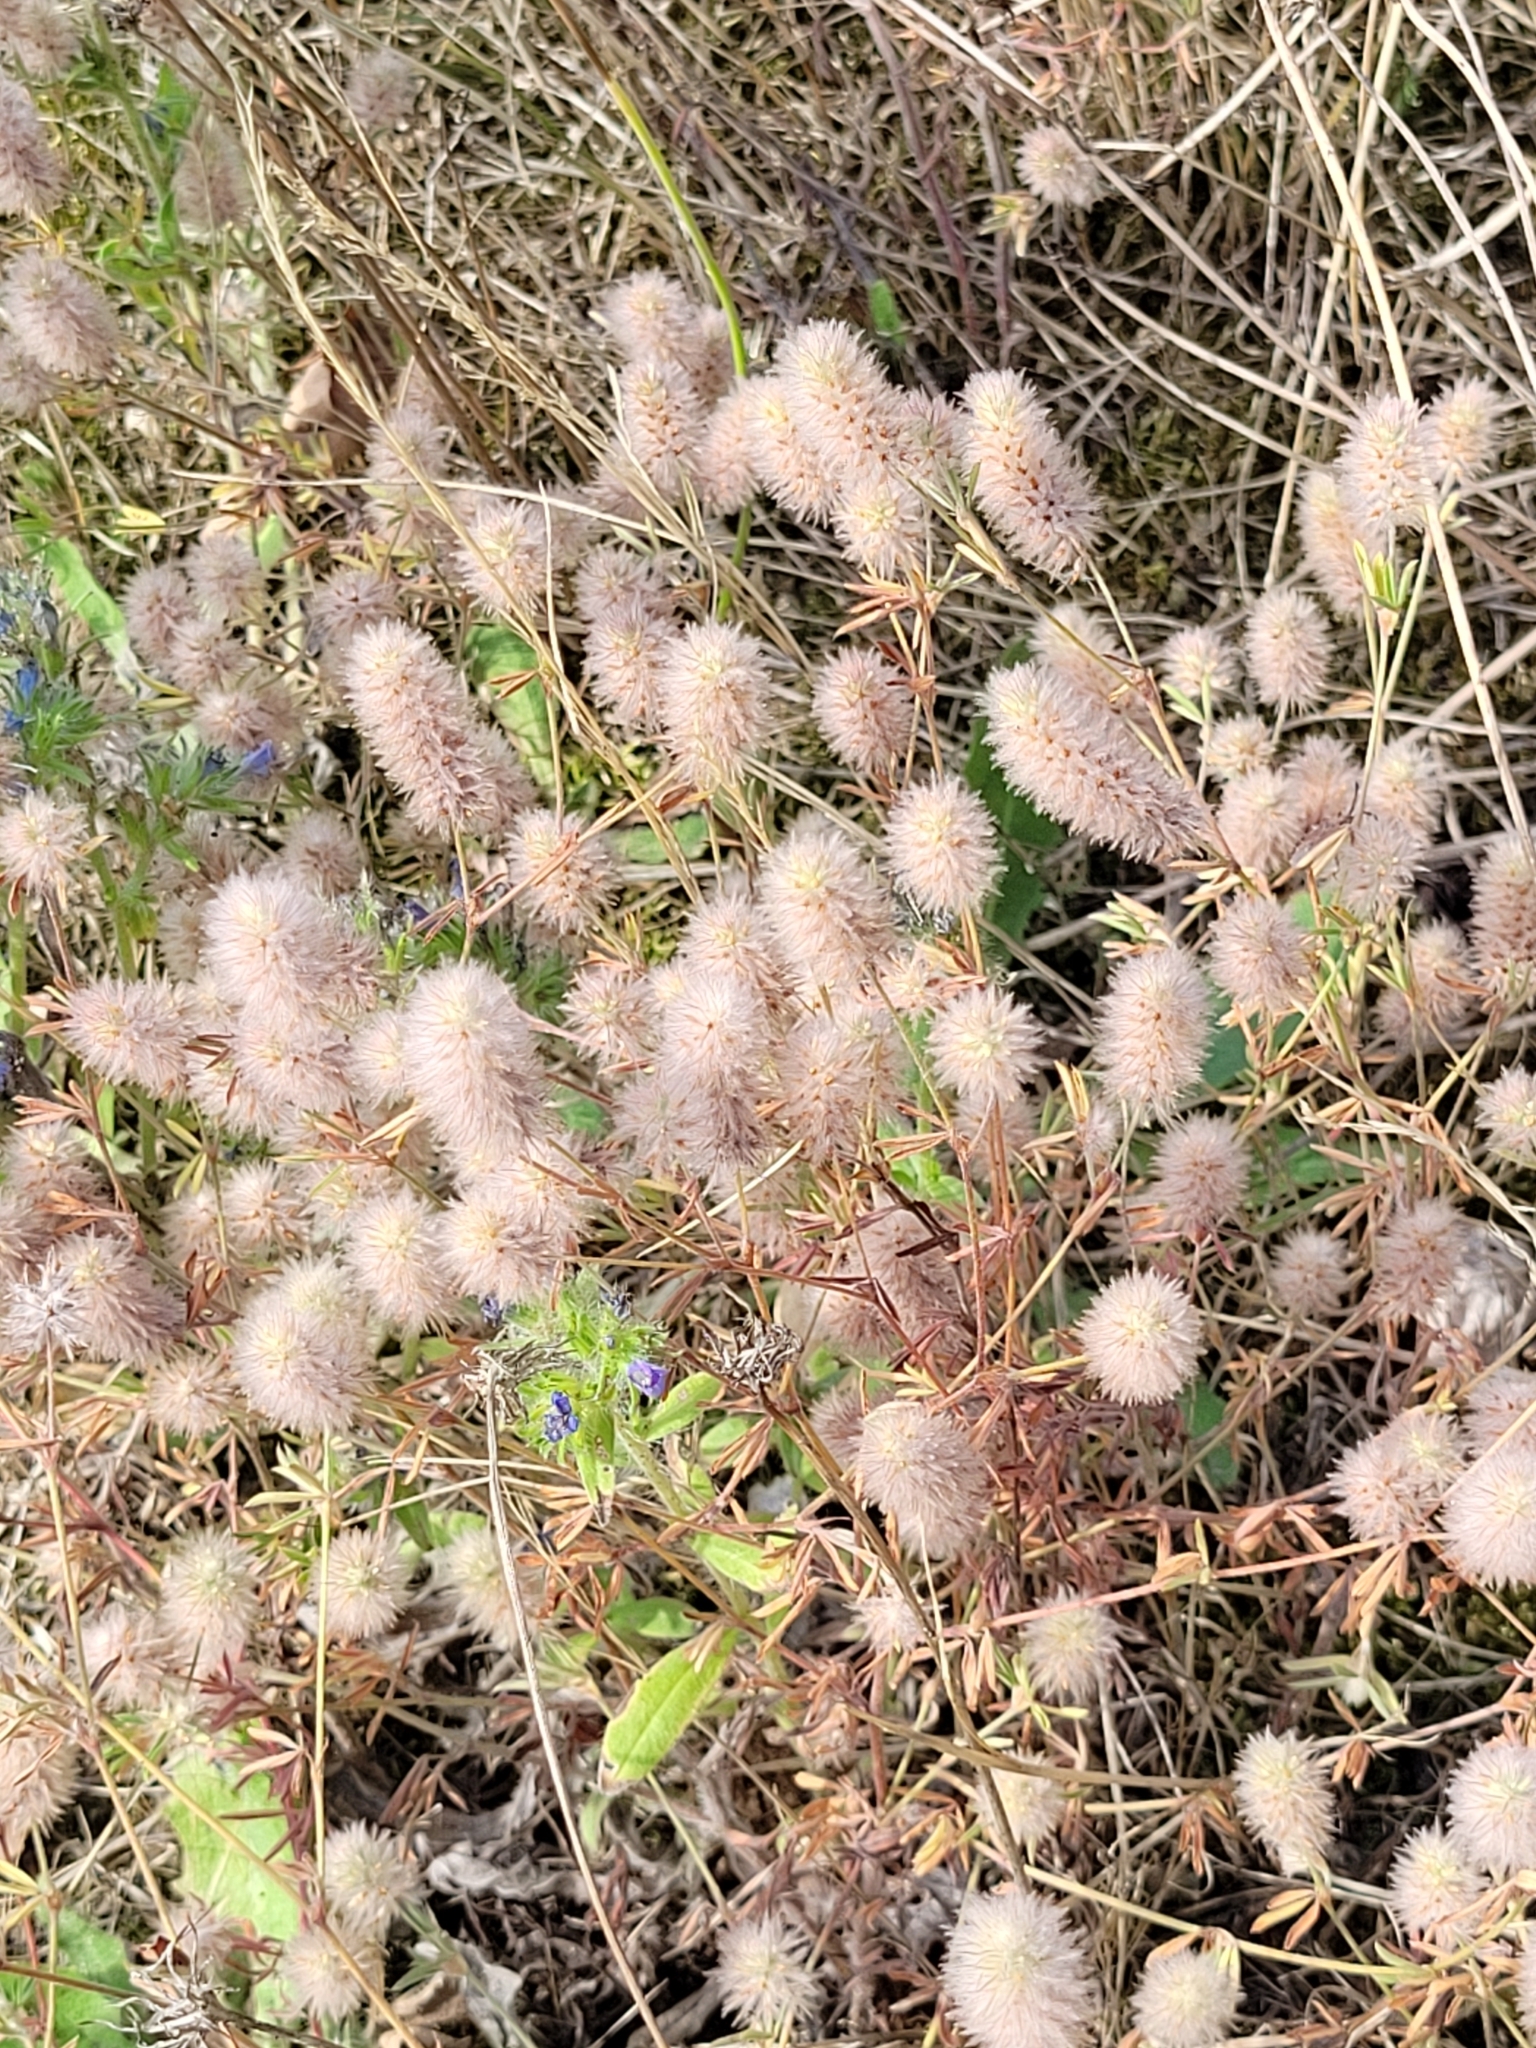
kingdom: Plantae
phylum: Tracheophyta
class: Magnoliopsida
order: Fabales
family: Fabaceae
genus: Trifolium
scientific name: Trifolium arvense
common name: Hare's-foot clover
